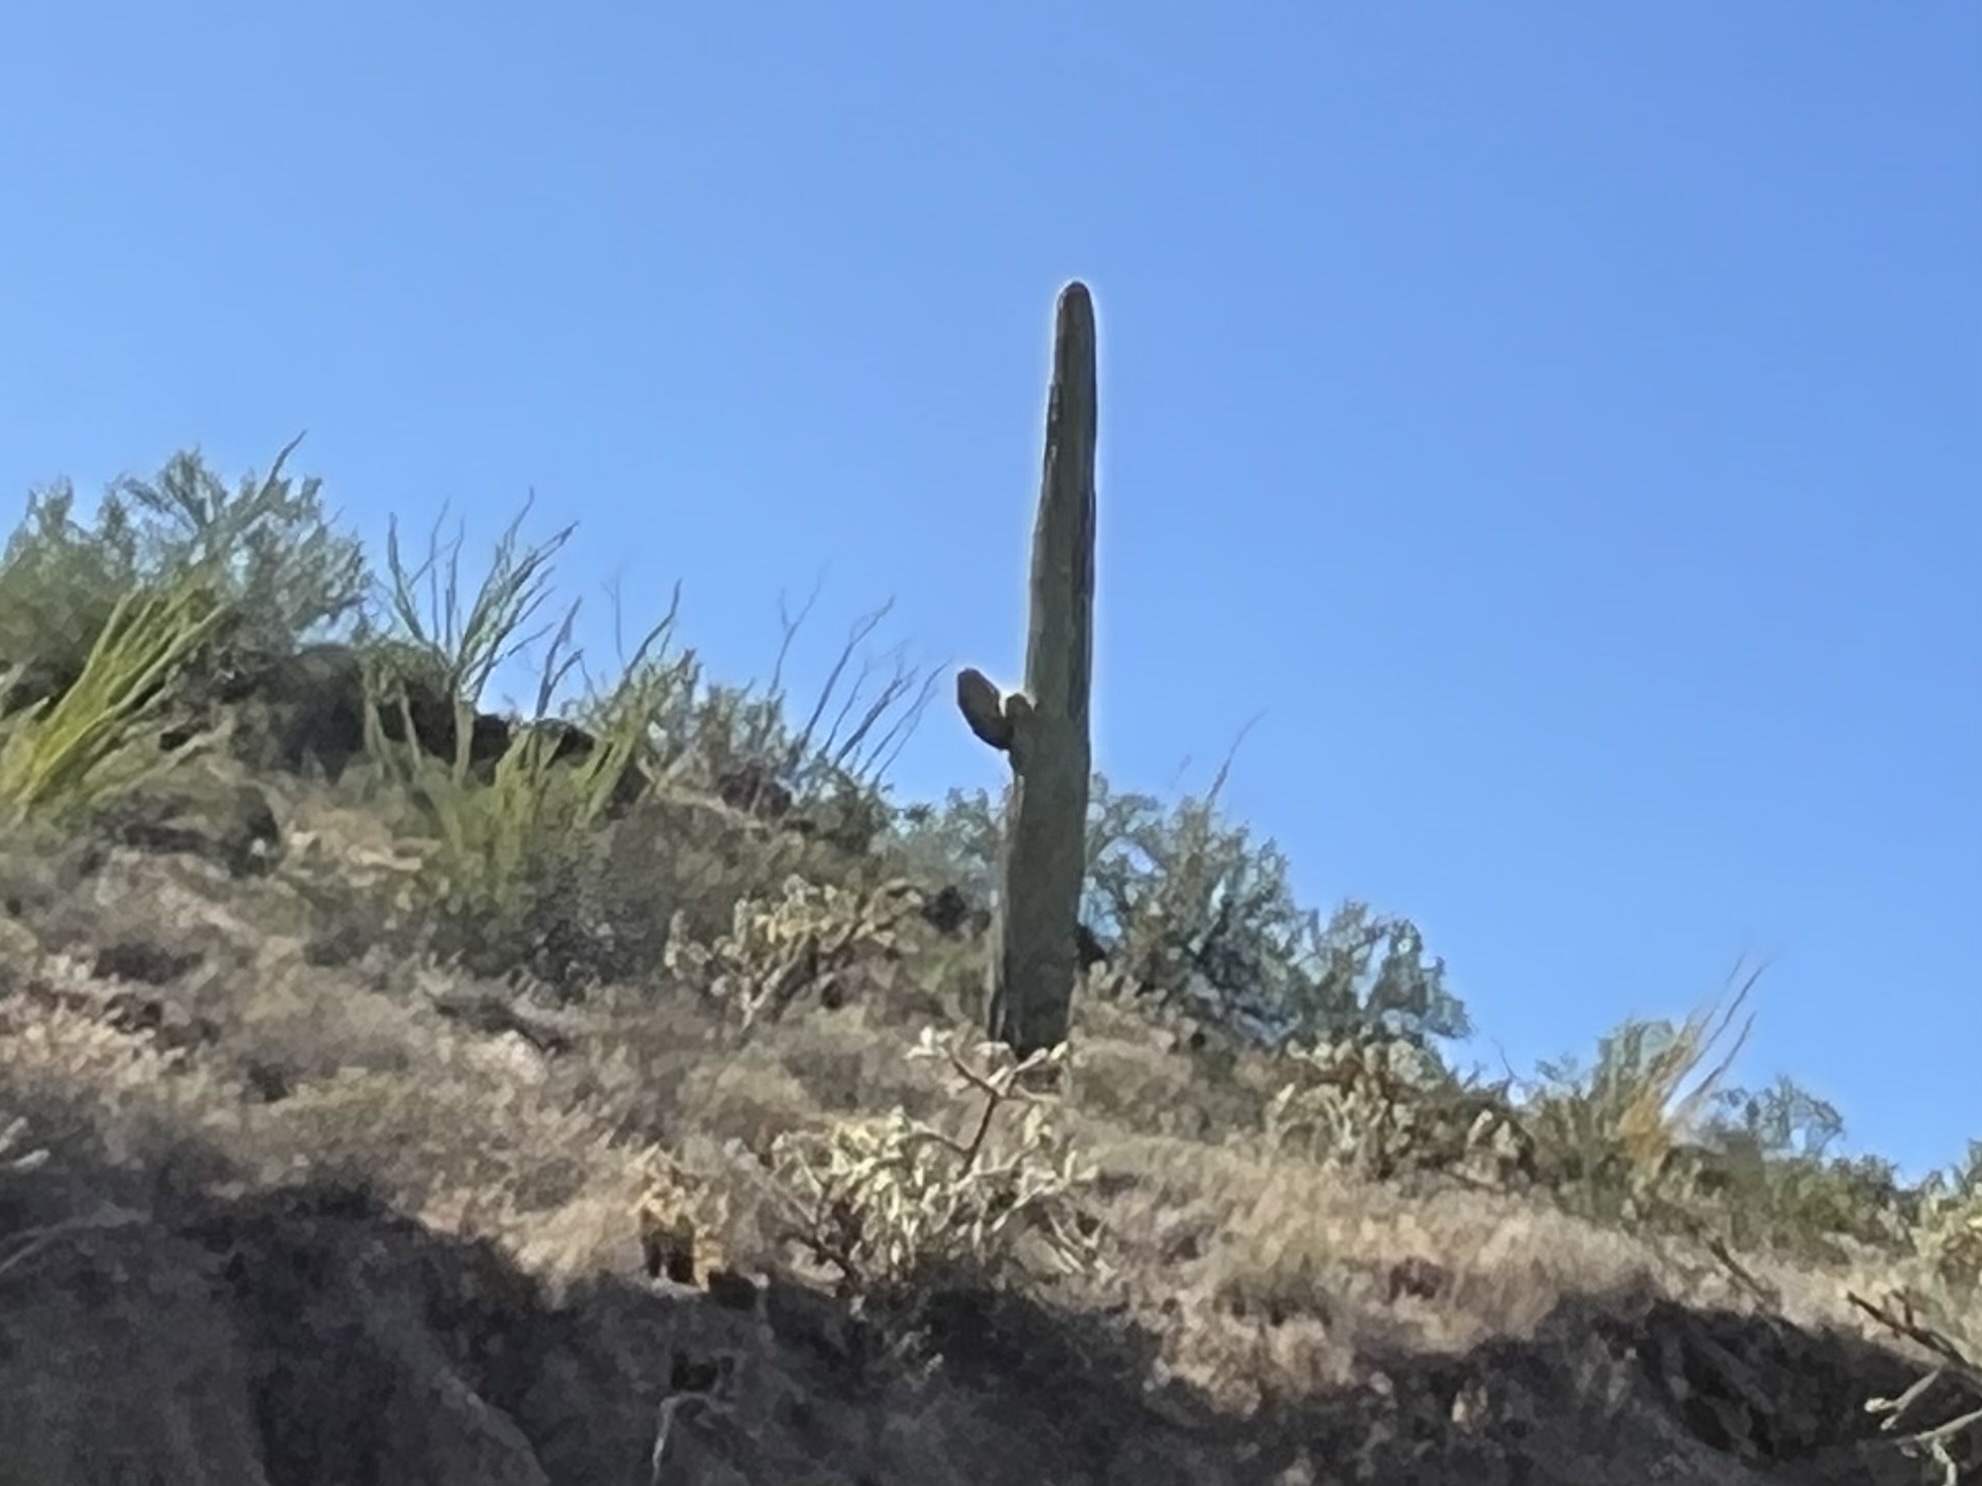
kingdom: Plantae
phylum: Tracheophyta
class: Magnoliopsida
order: Caryophyllales
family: Cactaceae
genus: Carnegiea
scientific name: Carnegiea gigantea
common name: Saguaro
